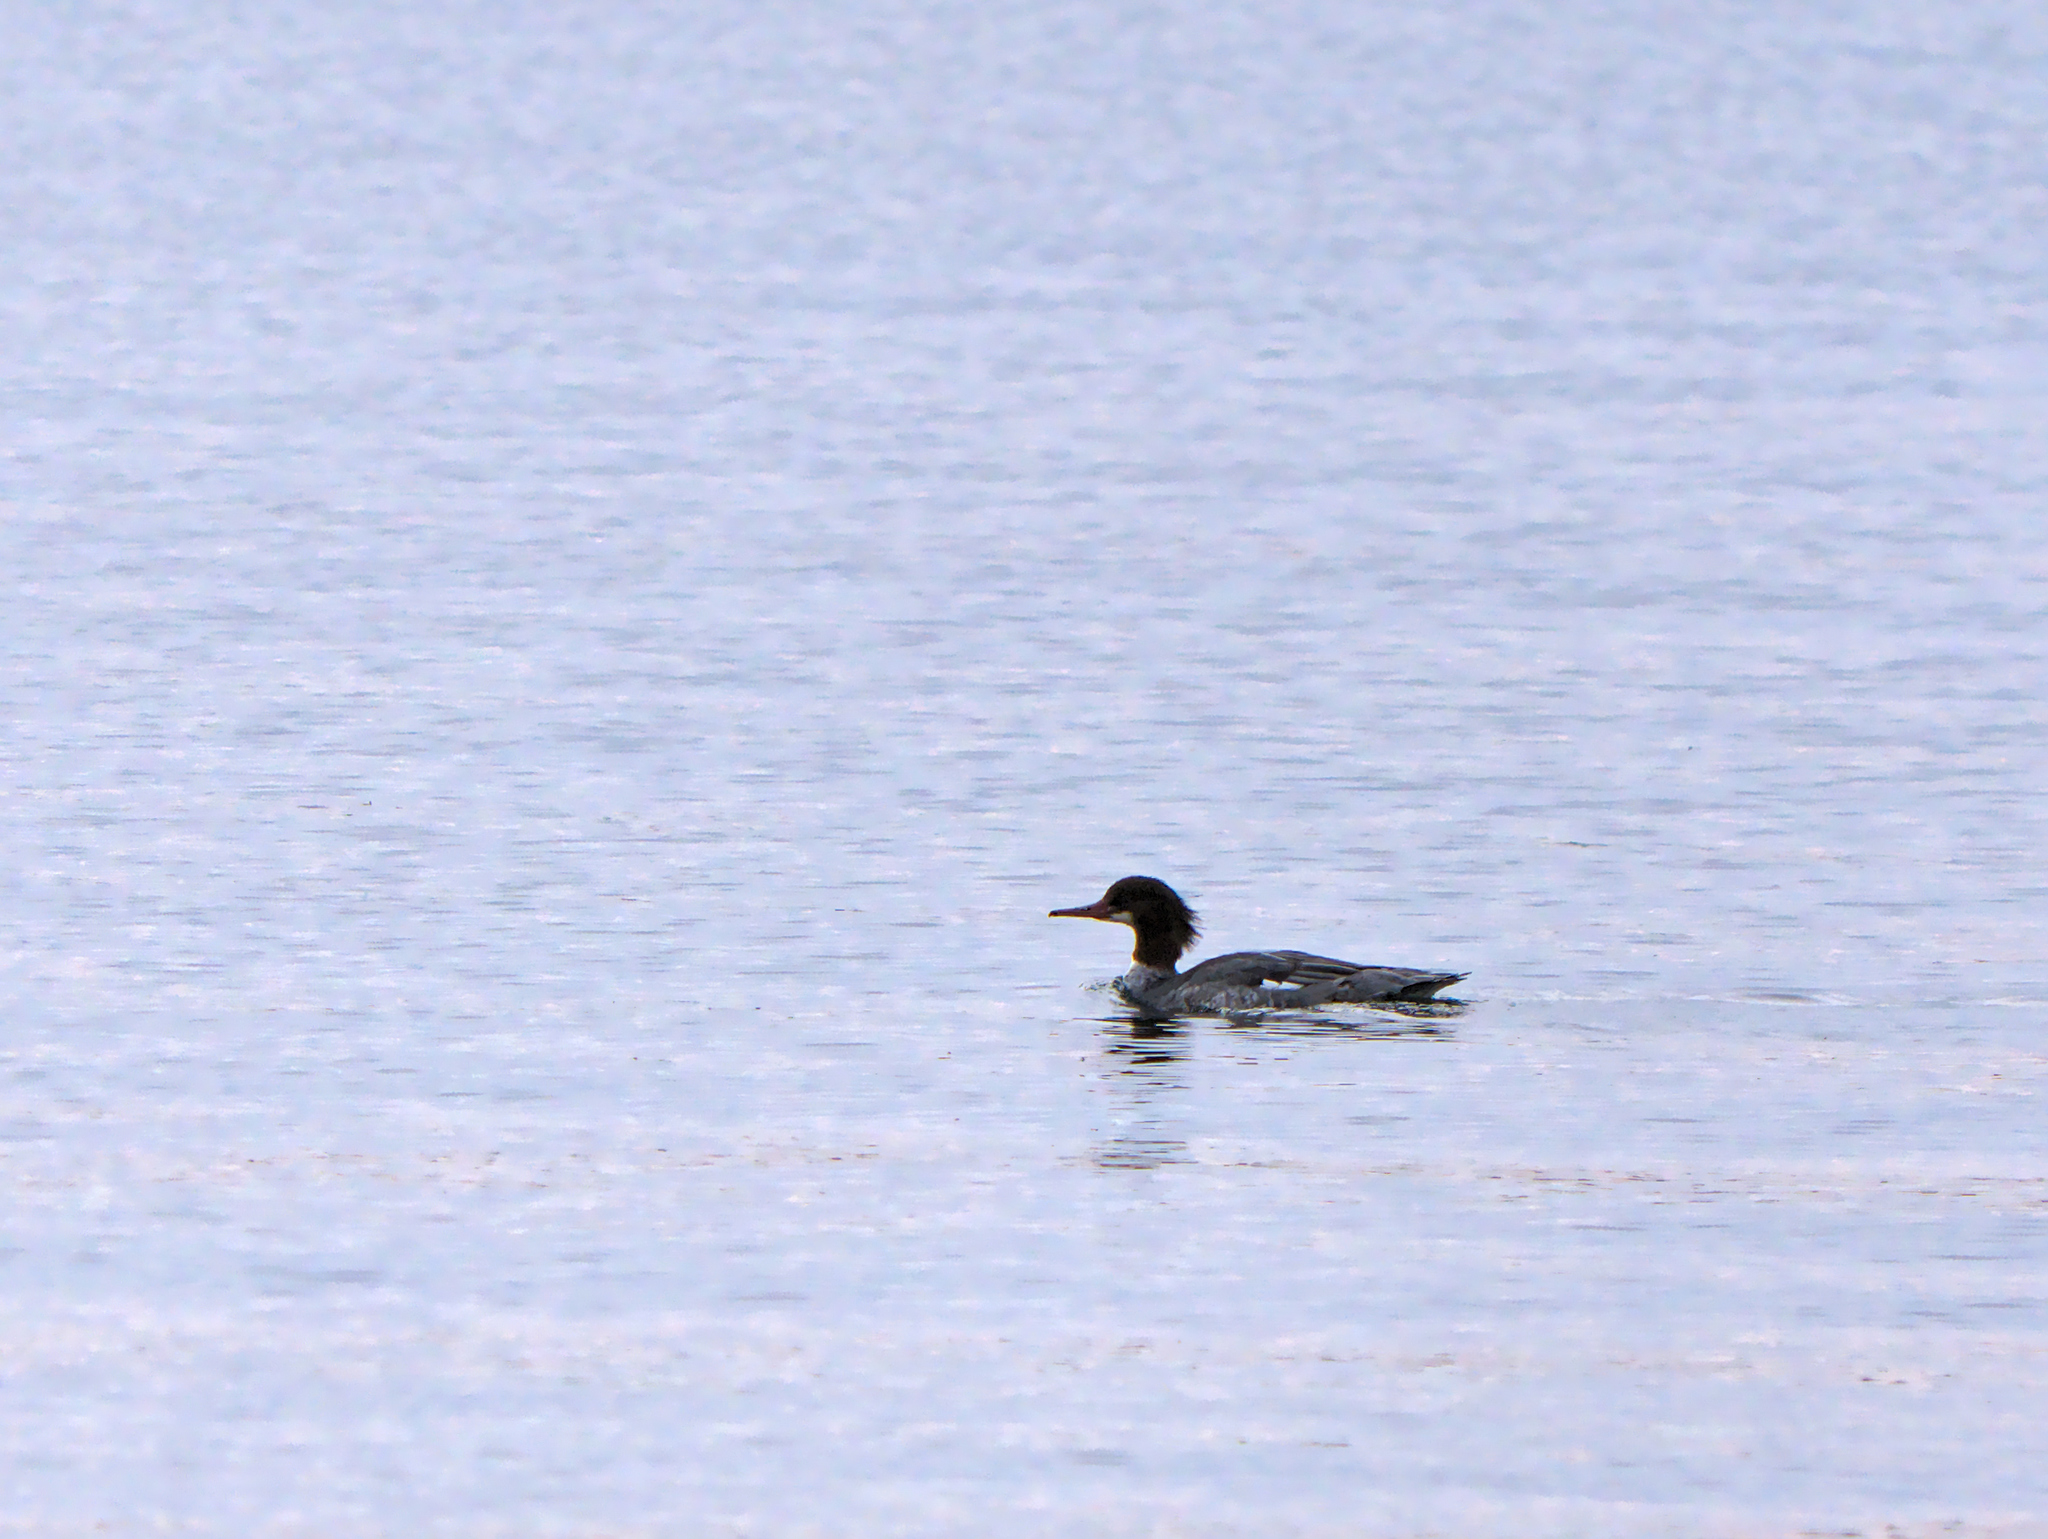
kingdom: Animalia
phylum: Chordata
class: Aves
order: Anseriformes
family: Anatidae
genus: Mergus
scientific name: Mergus merganser
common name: Common merganser
